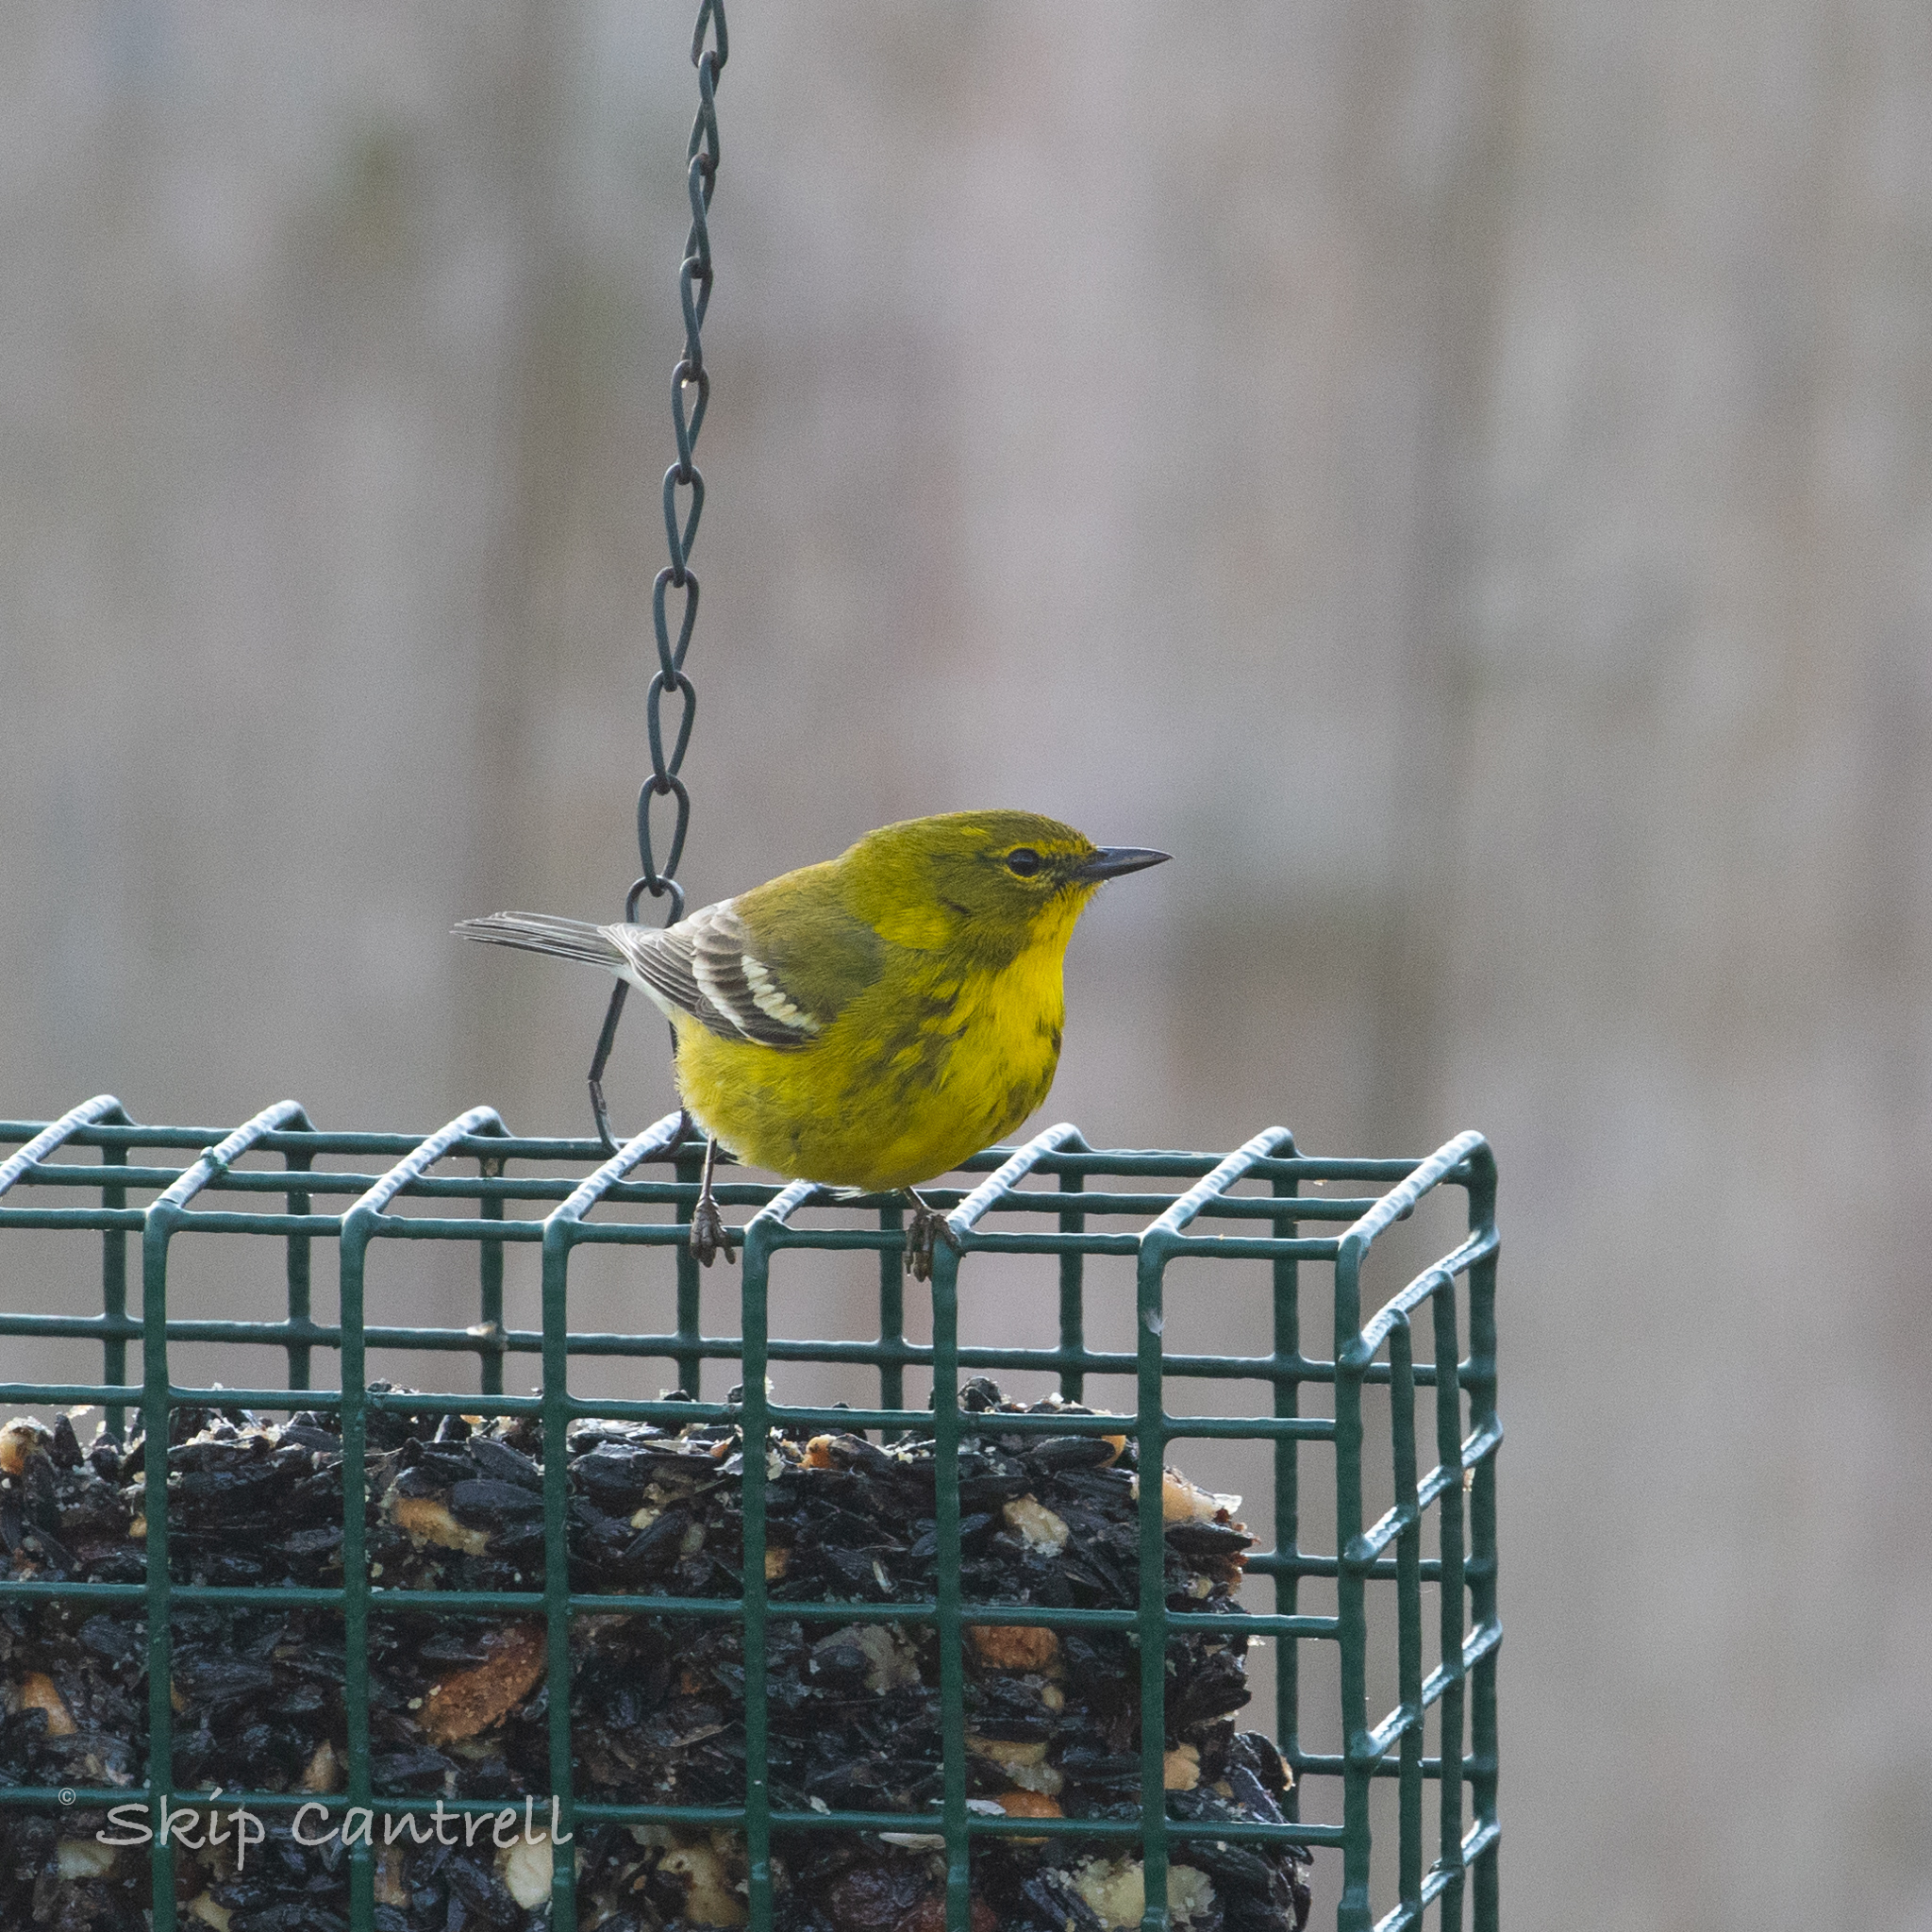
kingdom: Animalia
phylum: Chordata
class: Aves
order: Passeriformes
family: Parulidae
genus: Setophaga
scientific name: Setophaga pinus
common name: Pine warbler
